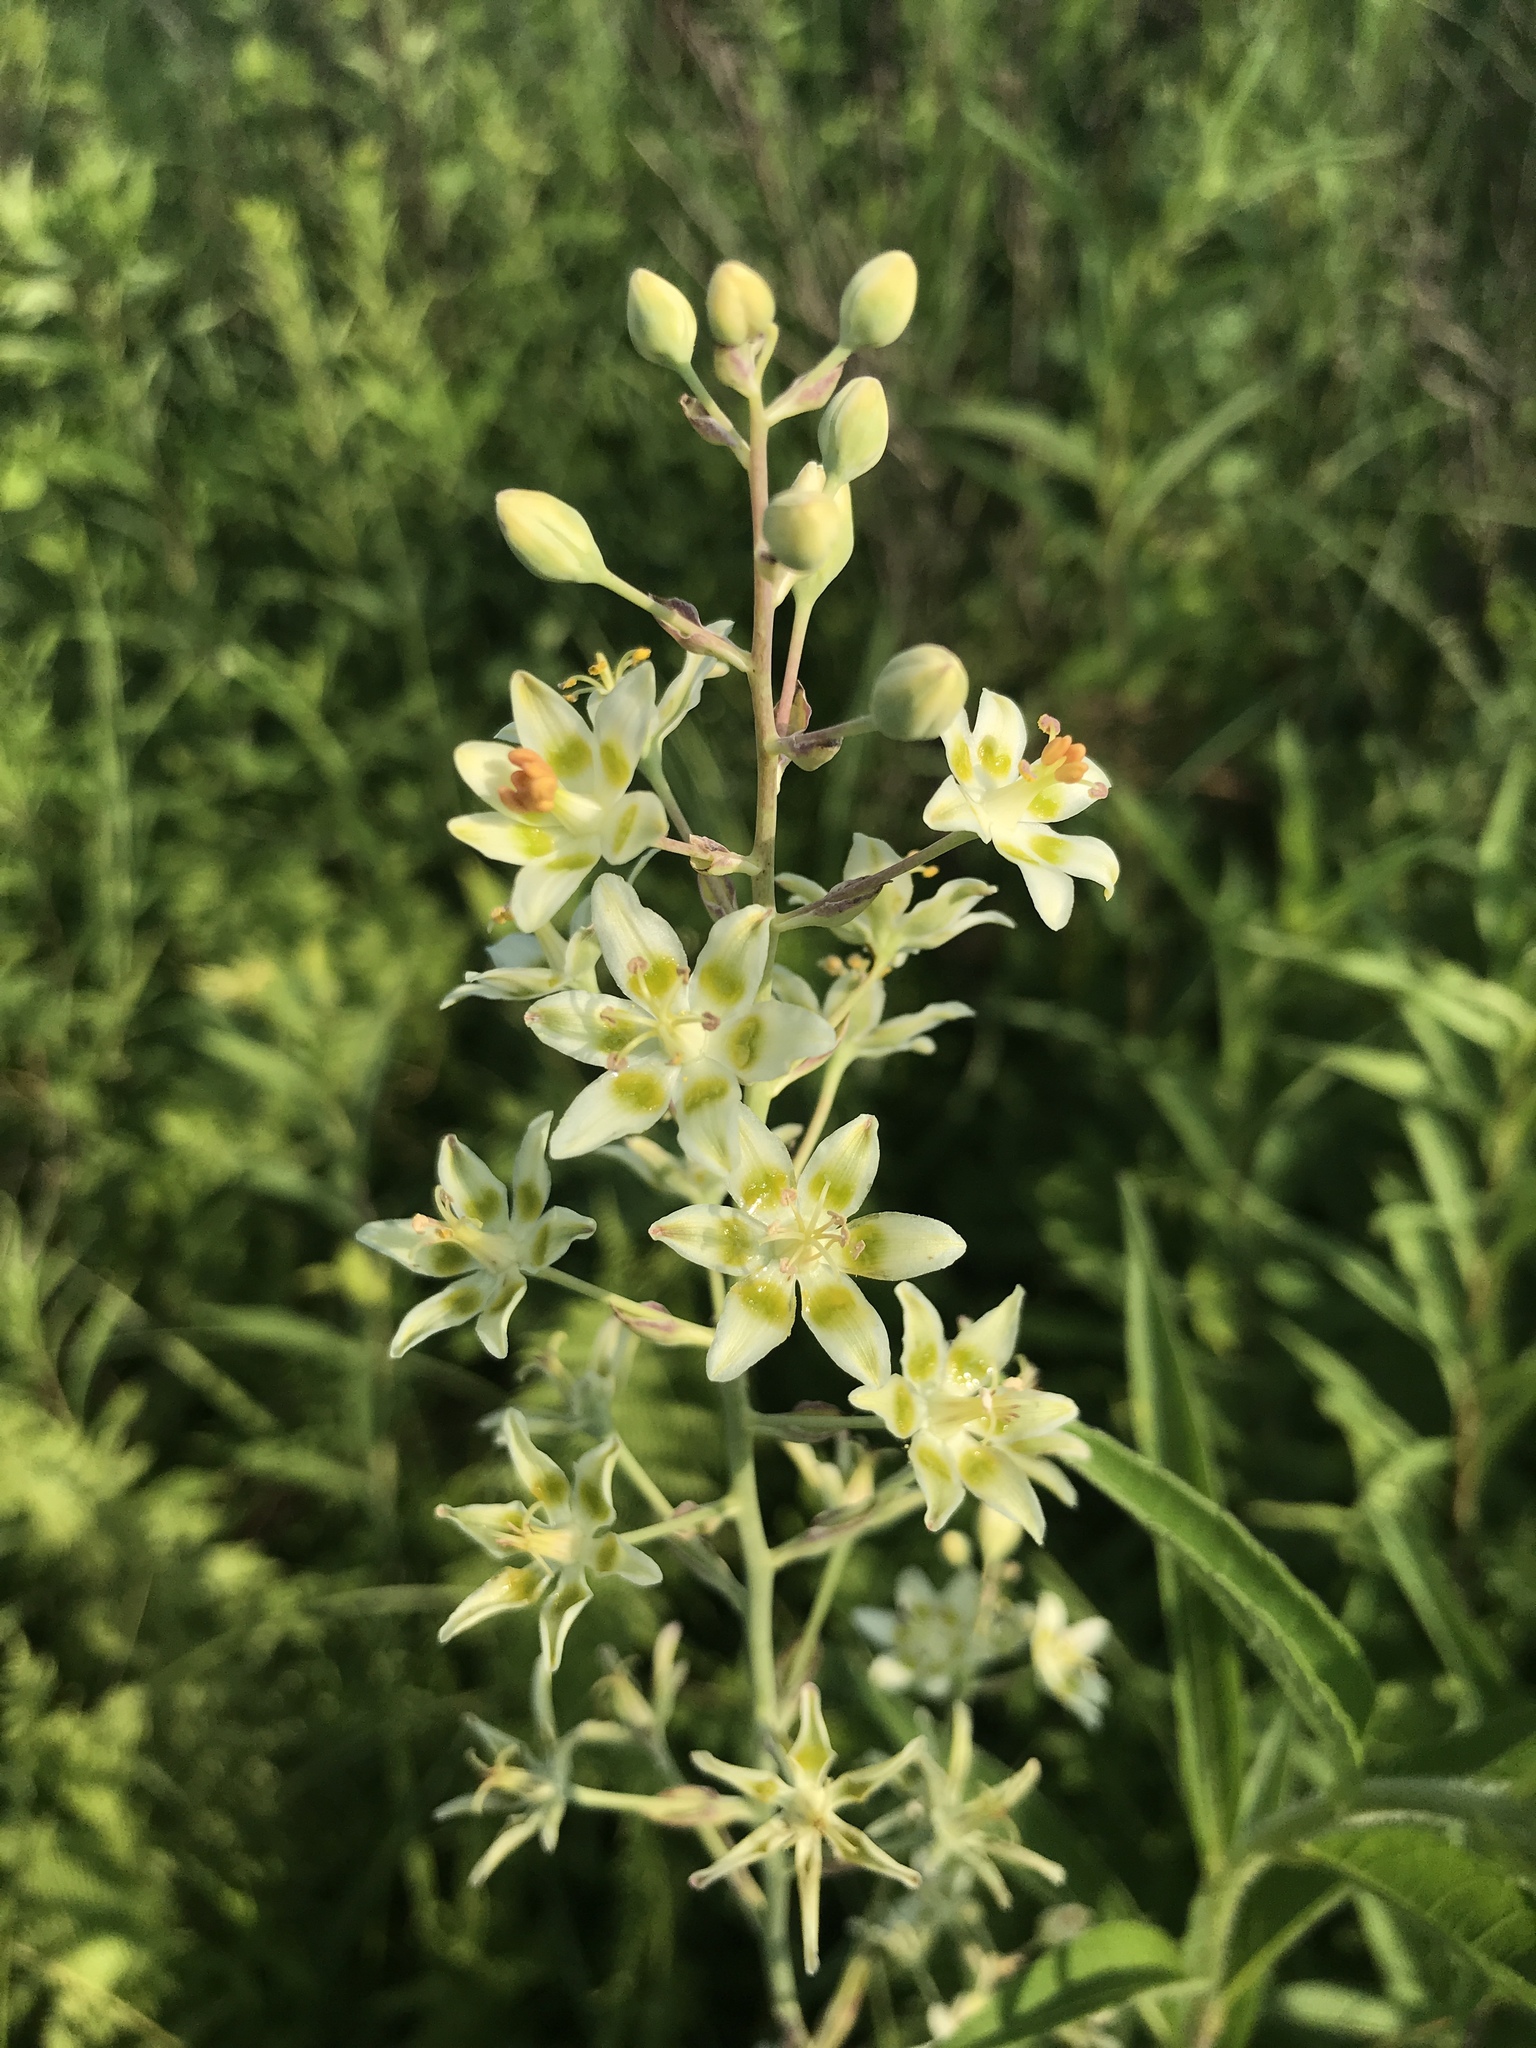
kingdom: Plantae
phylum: Tracheophyta
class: Liliopsida
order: Liliales
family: Melanthiaceae
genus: Anticlea
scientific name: Anticlea elegans
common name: Mountain death camas
